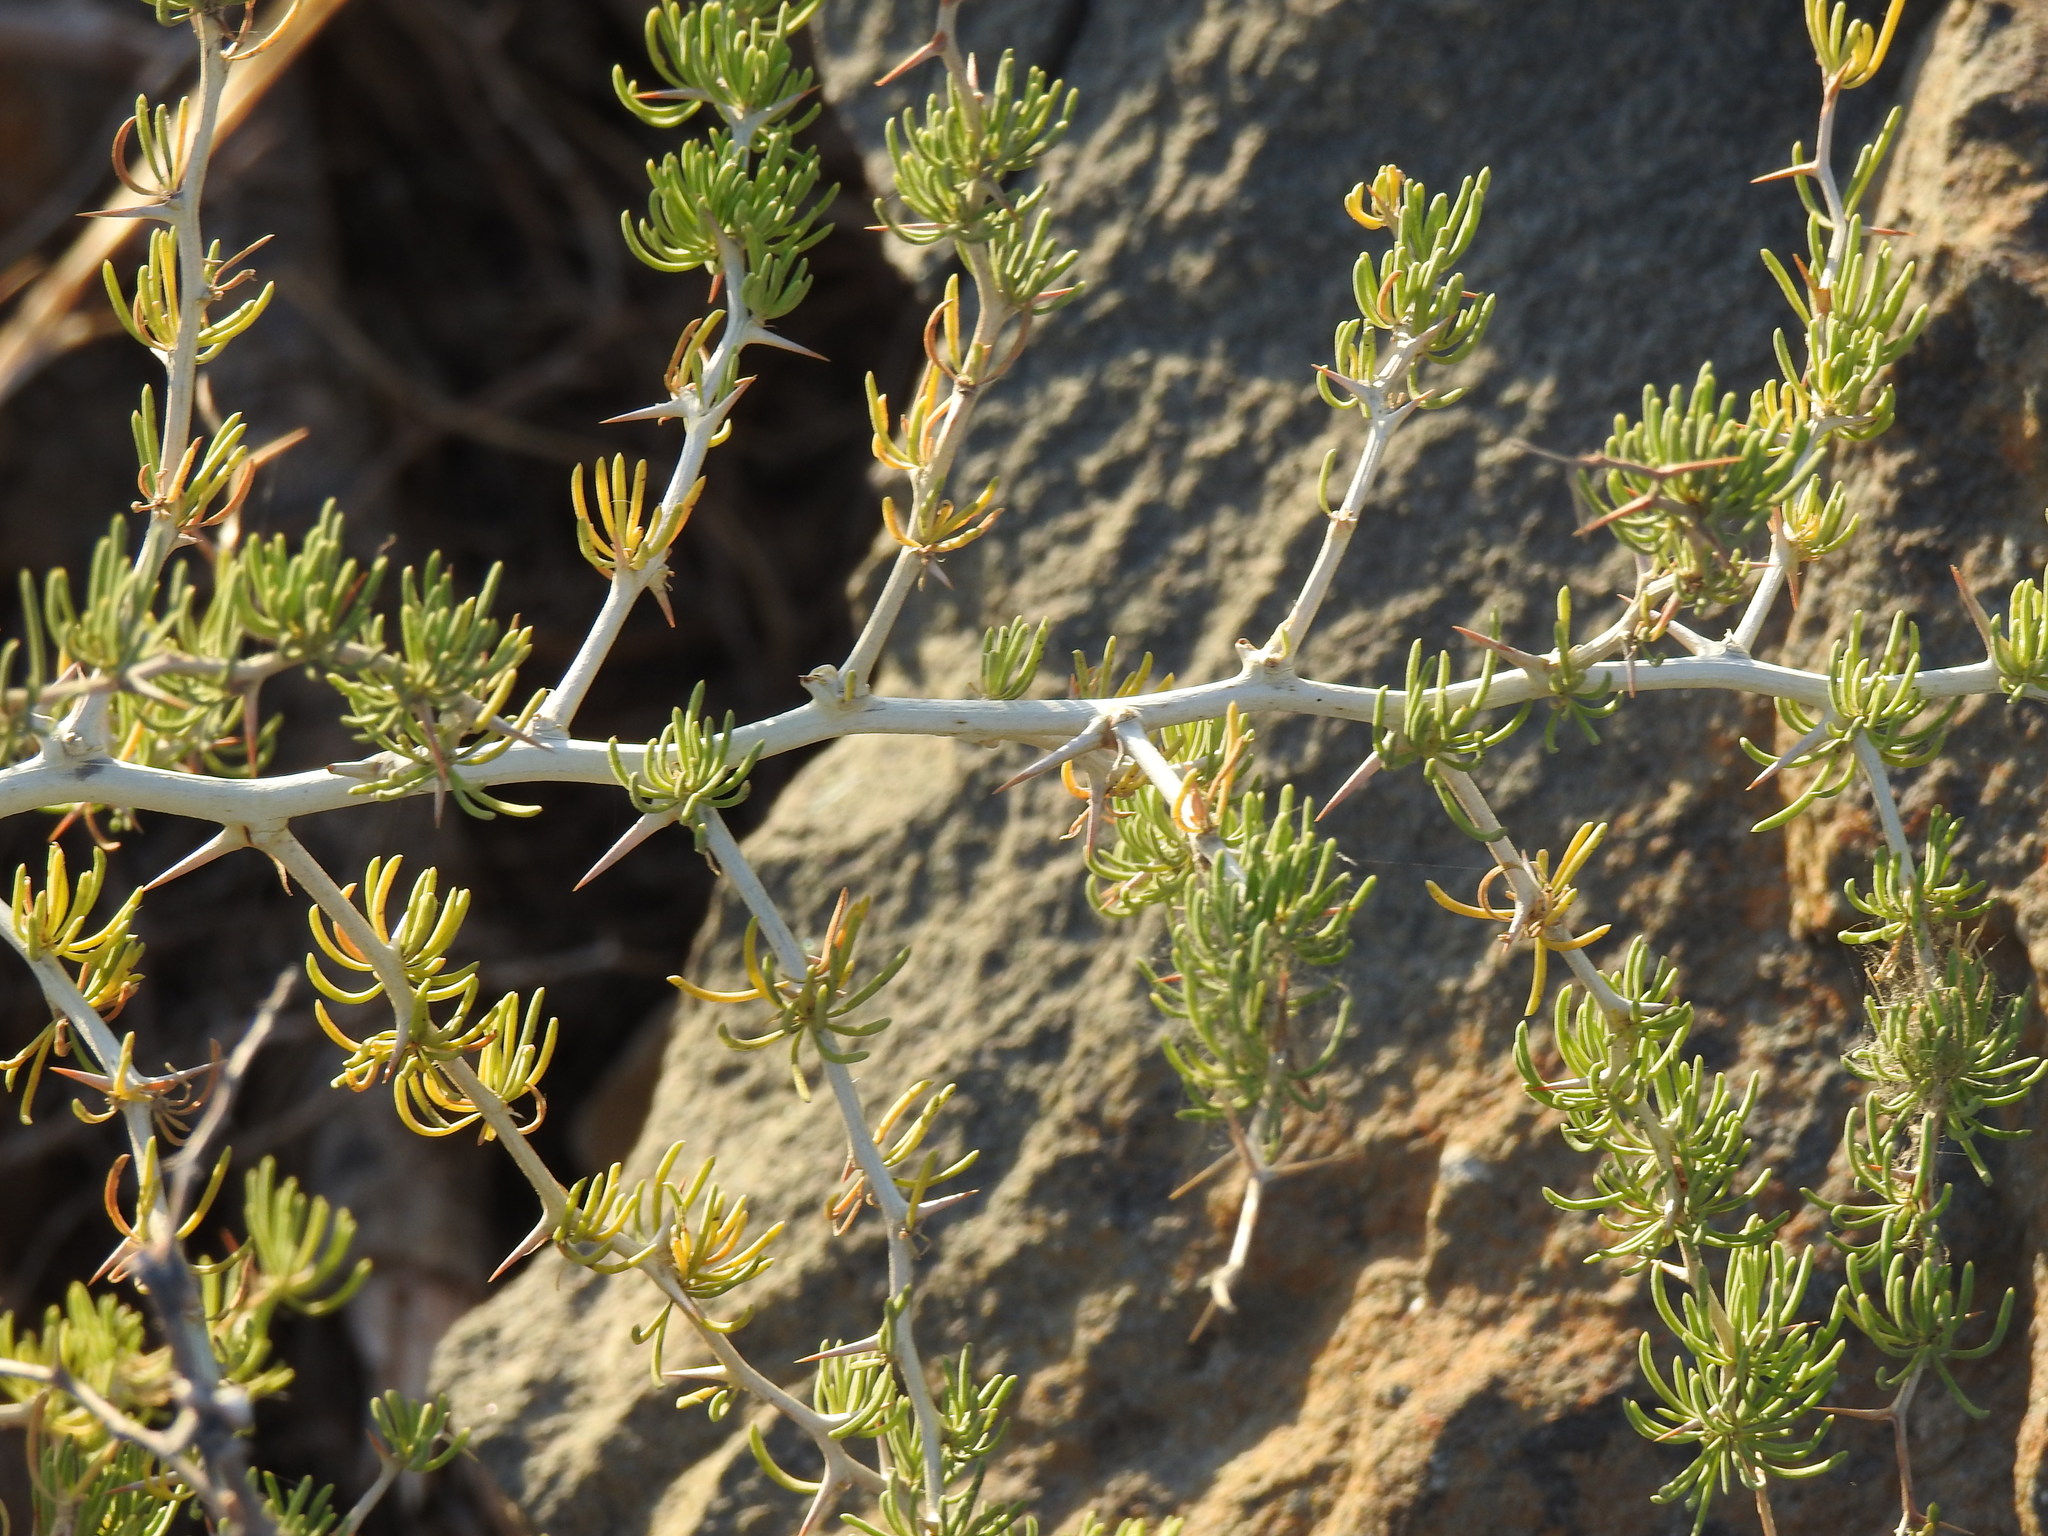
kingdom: Plantae
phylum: Tracheophyta
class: Liliopsida
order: Asparagales
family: Asparagaceae
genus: Asparagus
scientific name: Asparagus albus
